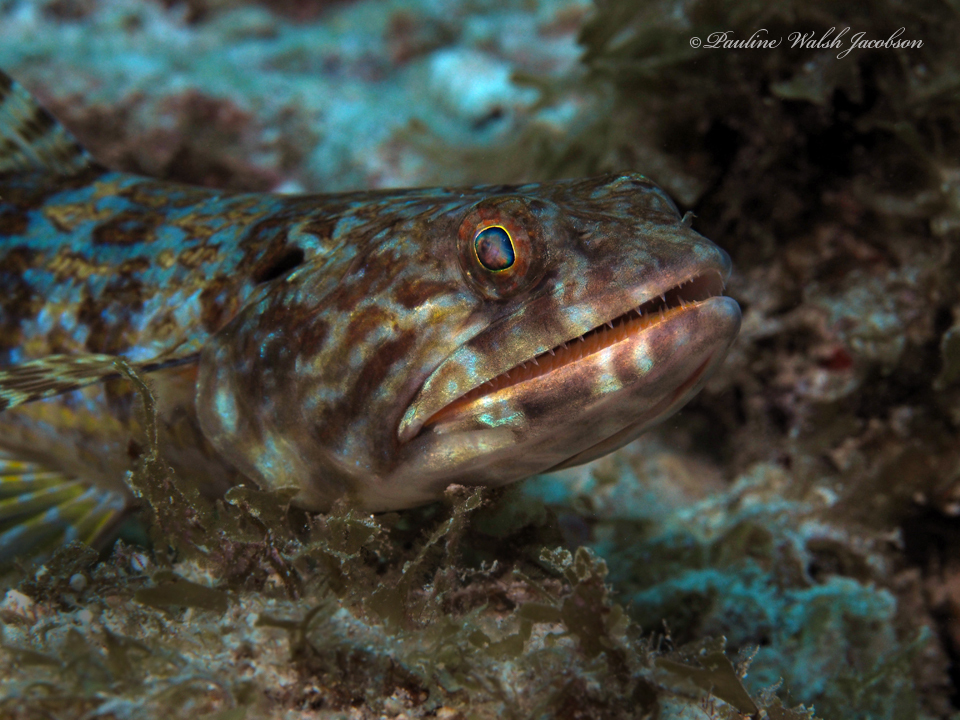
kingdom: Animalia
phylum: Chordata
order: Aulopiformes
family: Synodontidae
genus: Synodus
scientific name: Synodus intermedius
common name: Sand diver
